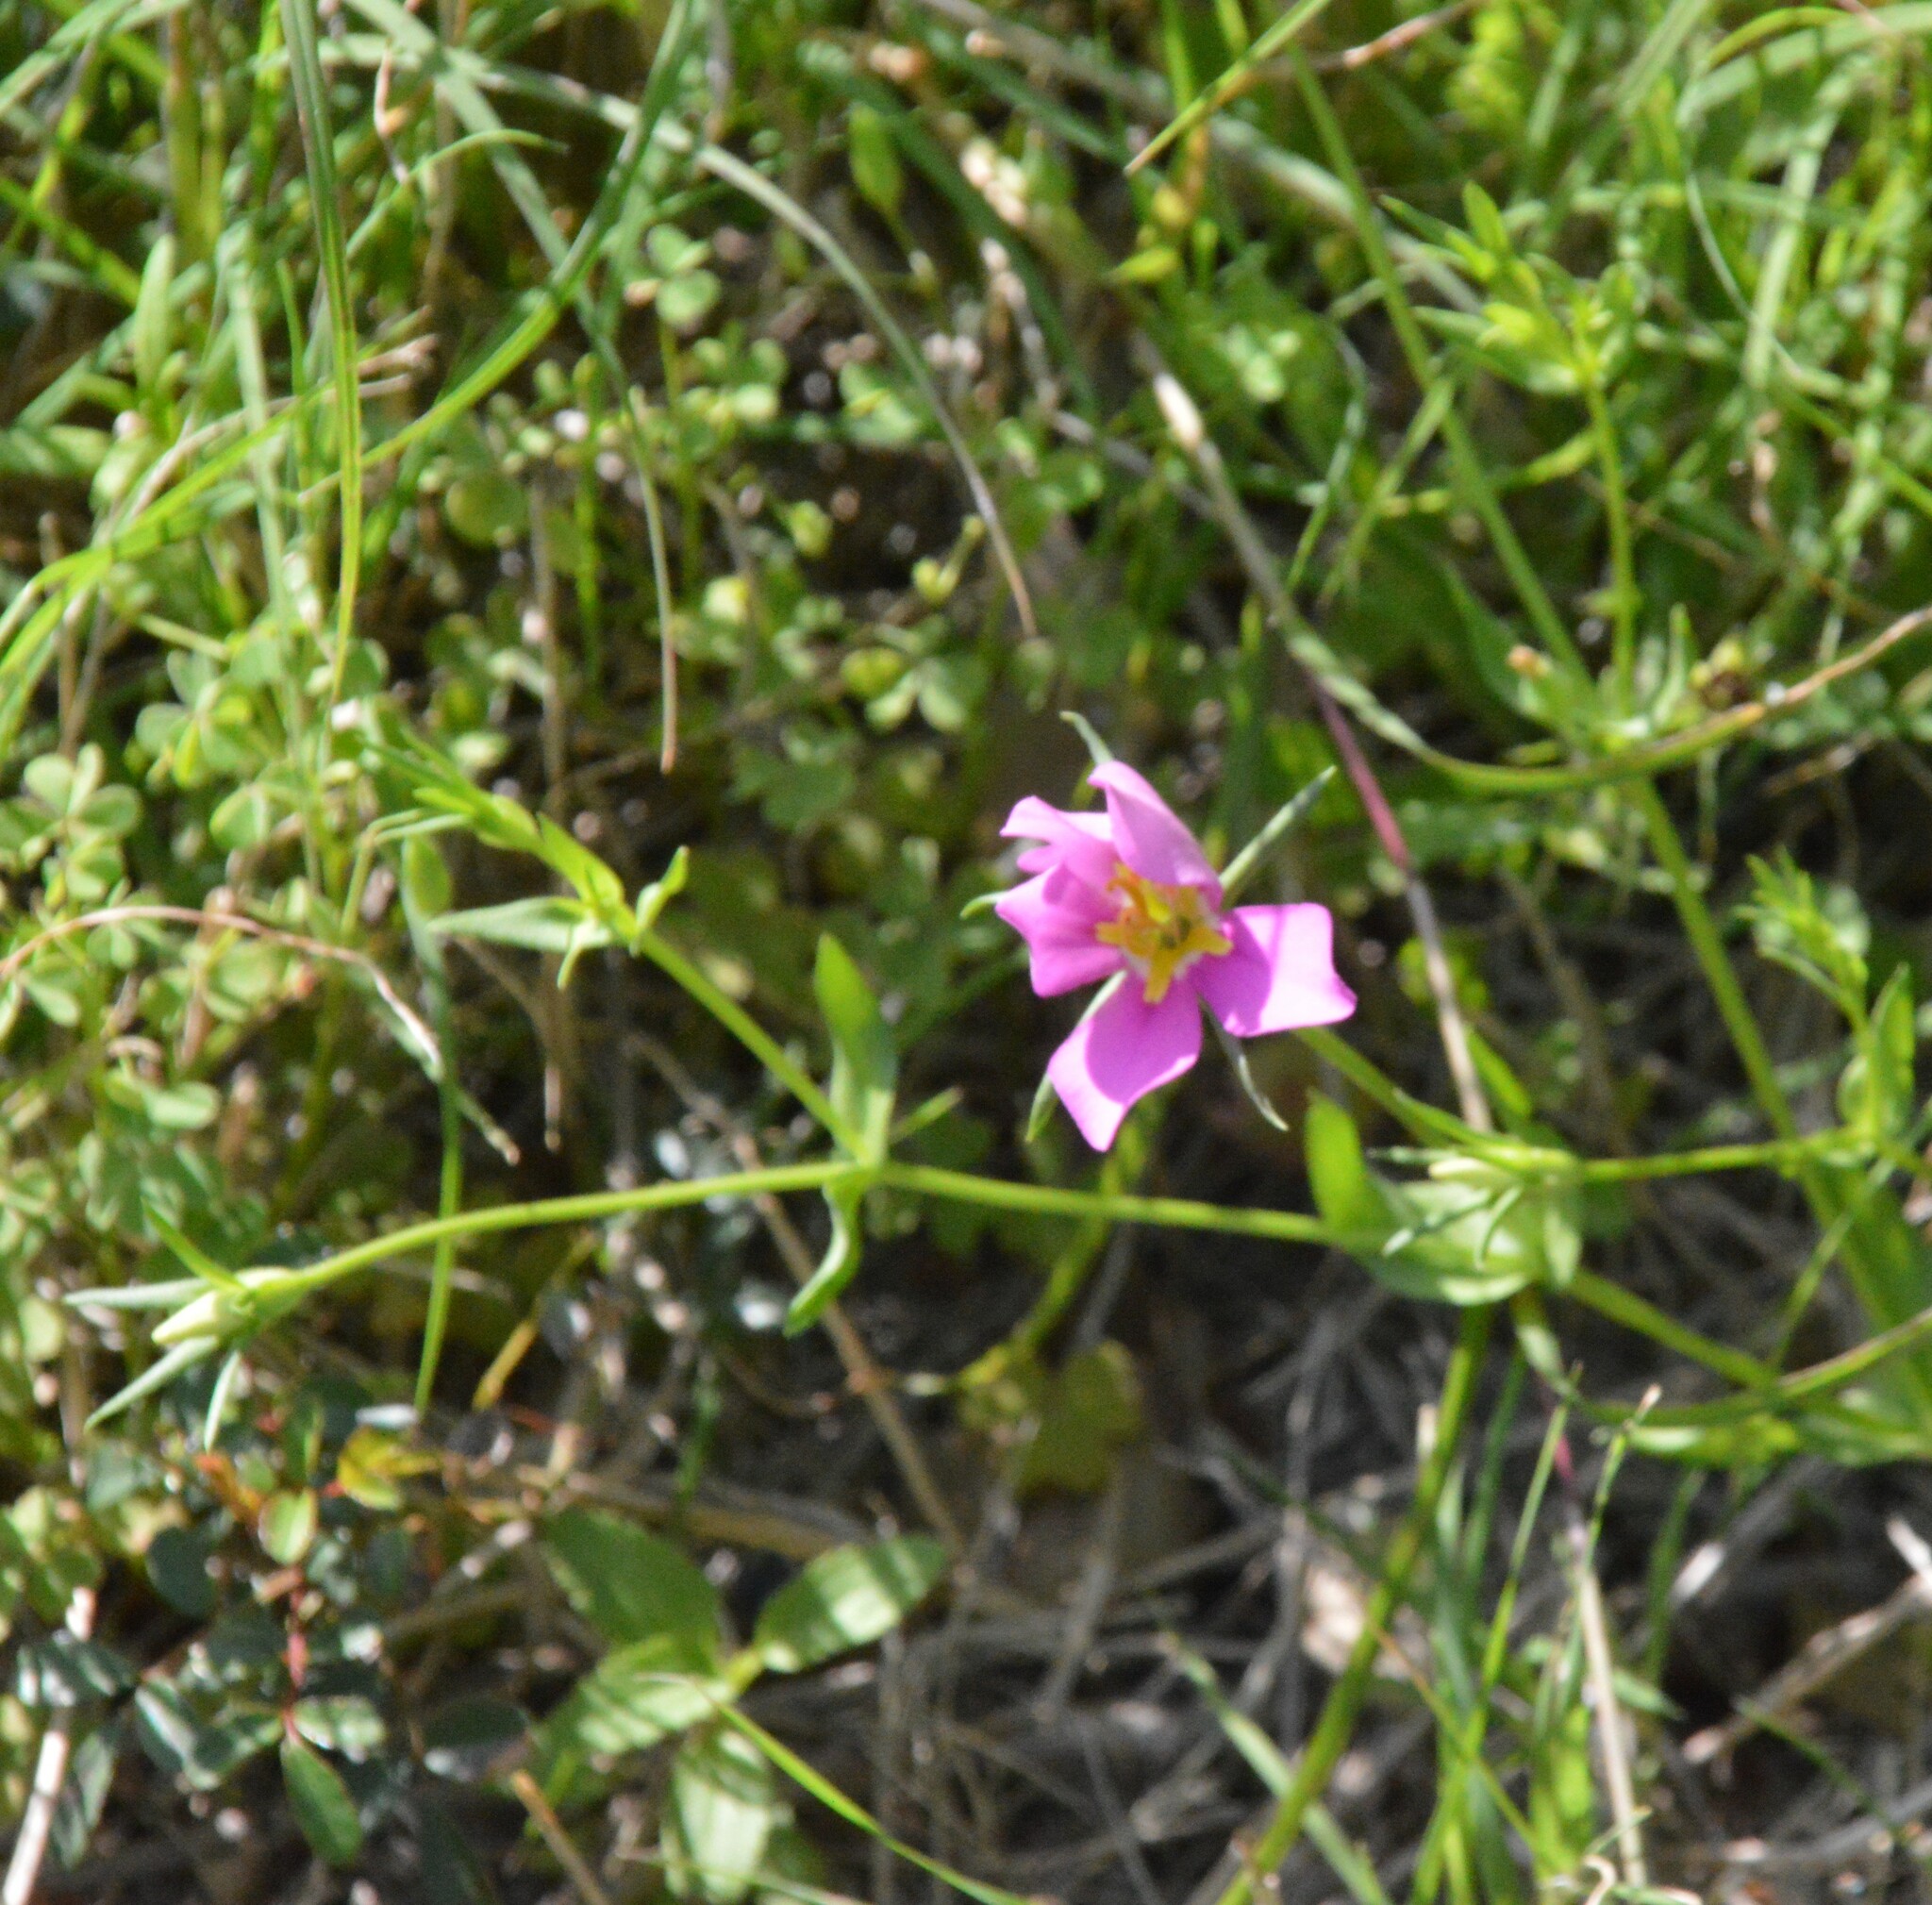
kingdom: Plantae
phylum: Tracheophyta
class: Magnoliopsida
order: Gentianales
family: Gentianaceae
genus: Sabatia
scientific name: Sabatia campestris
